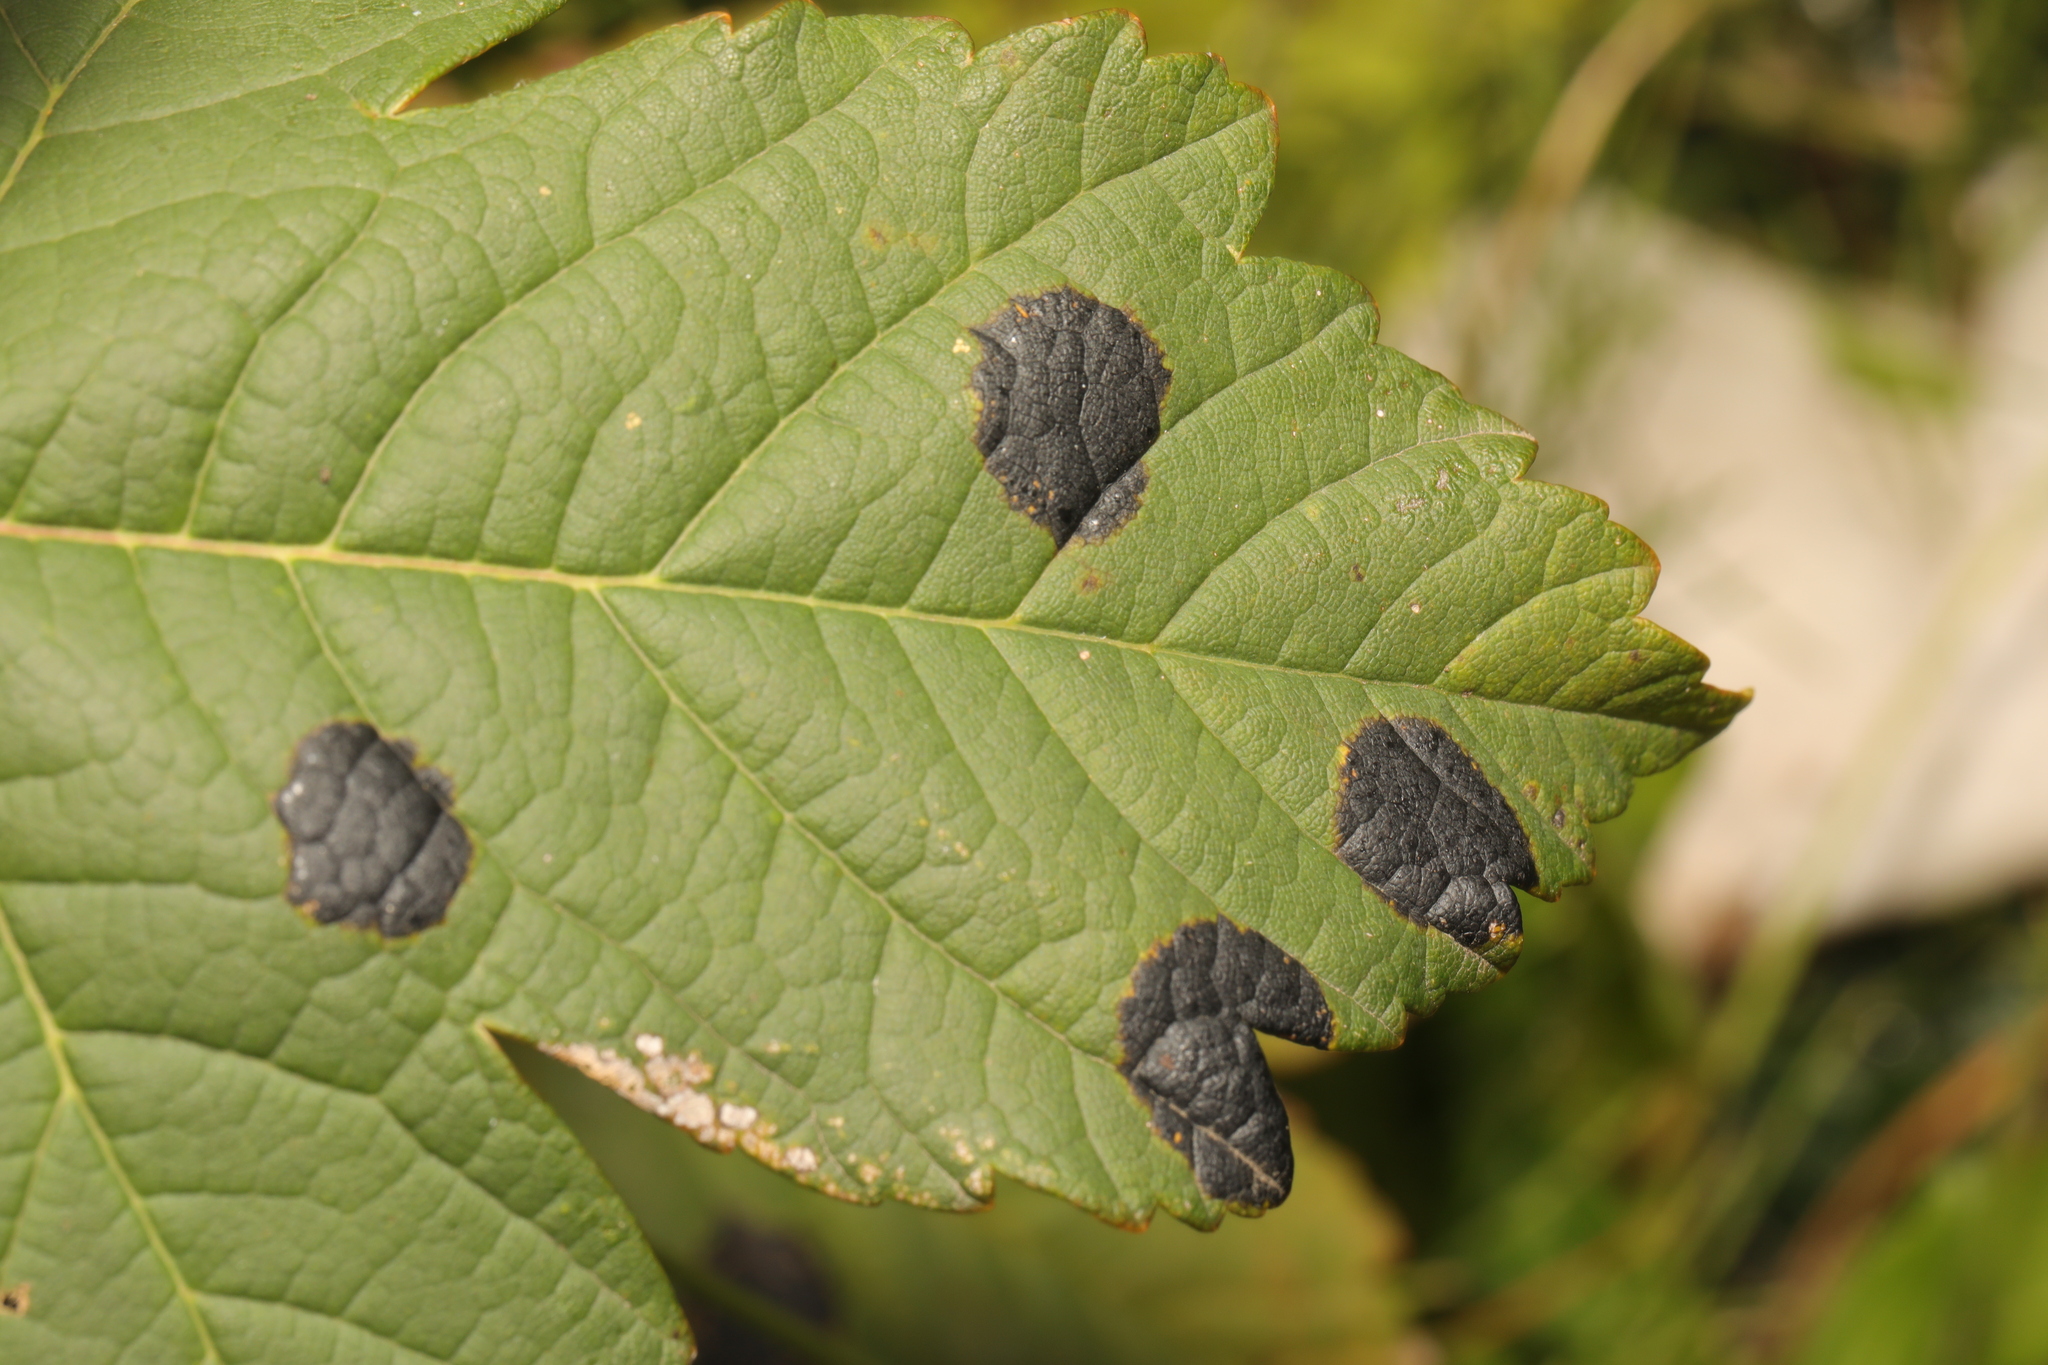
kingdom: Fungi
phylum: Ascomycota
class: Leotiomycetes
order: Rhytismatales
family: Rhytismataceae
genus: Rhytisma
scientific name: Rhytisma acerinum
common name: European tar spot
